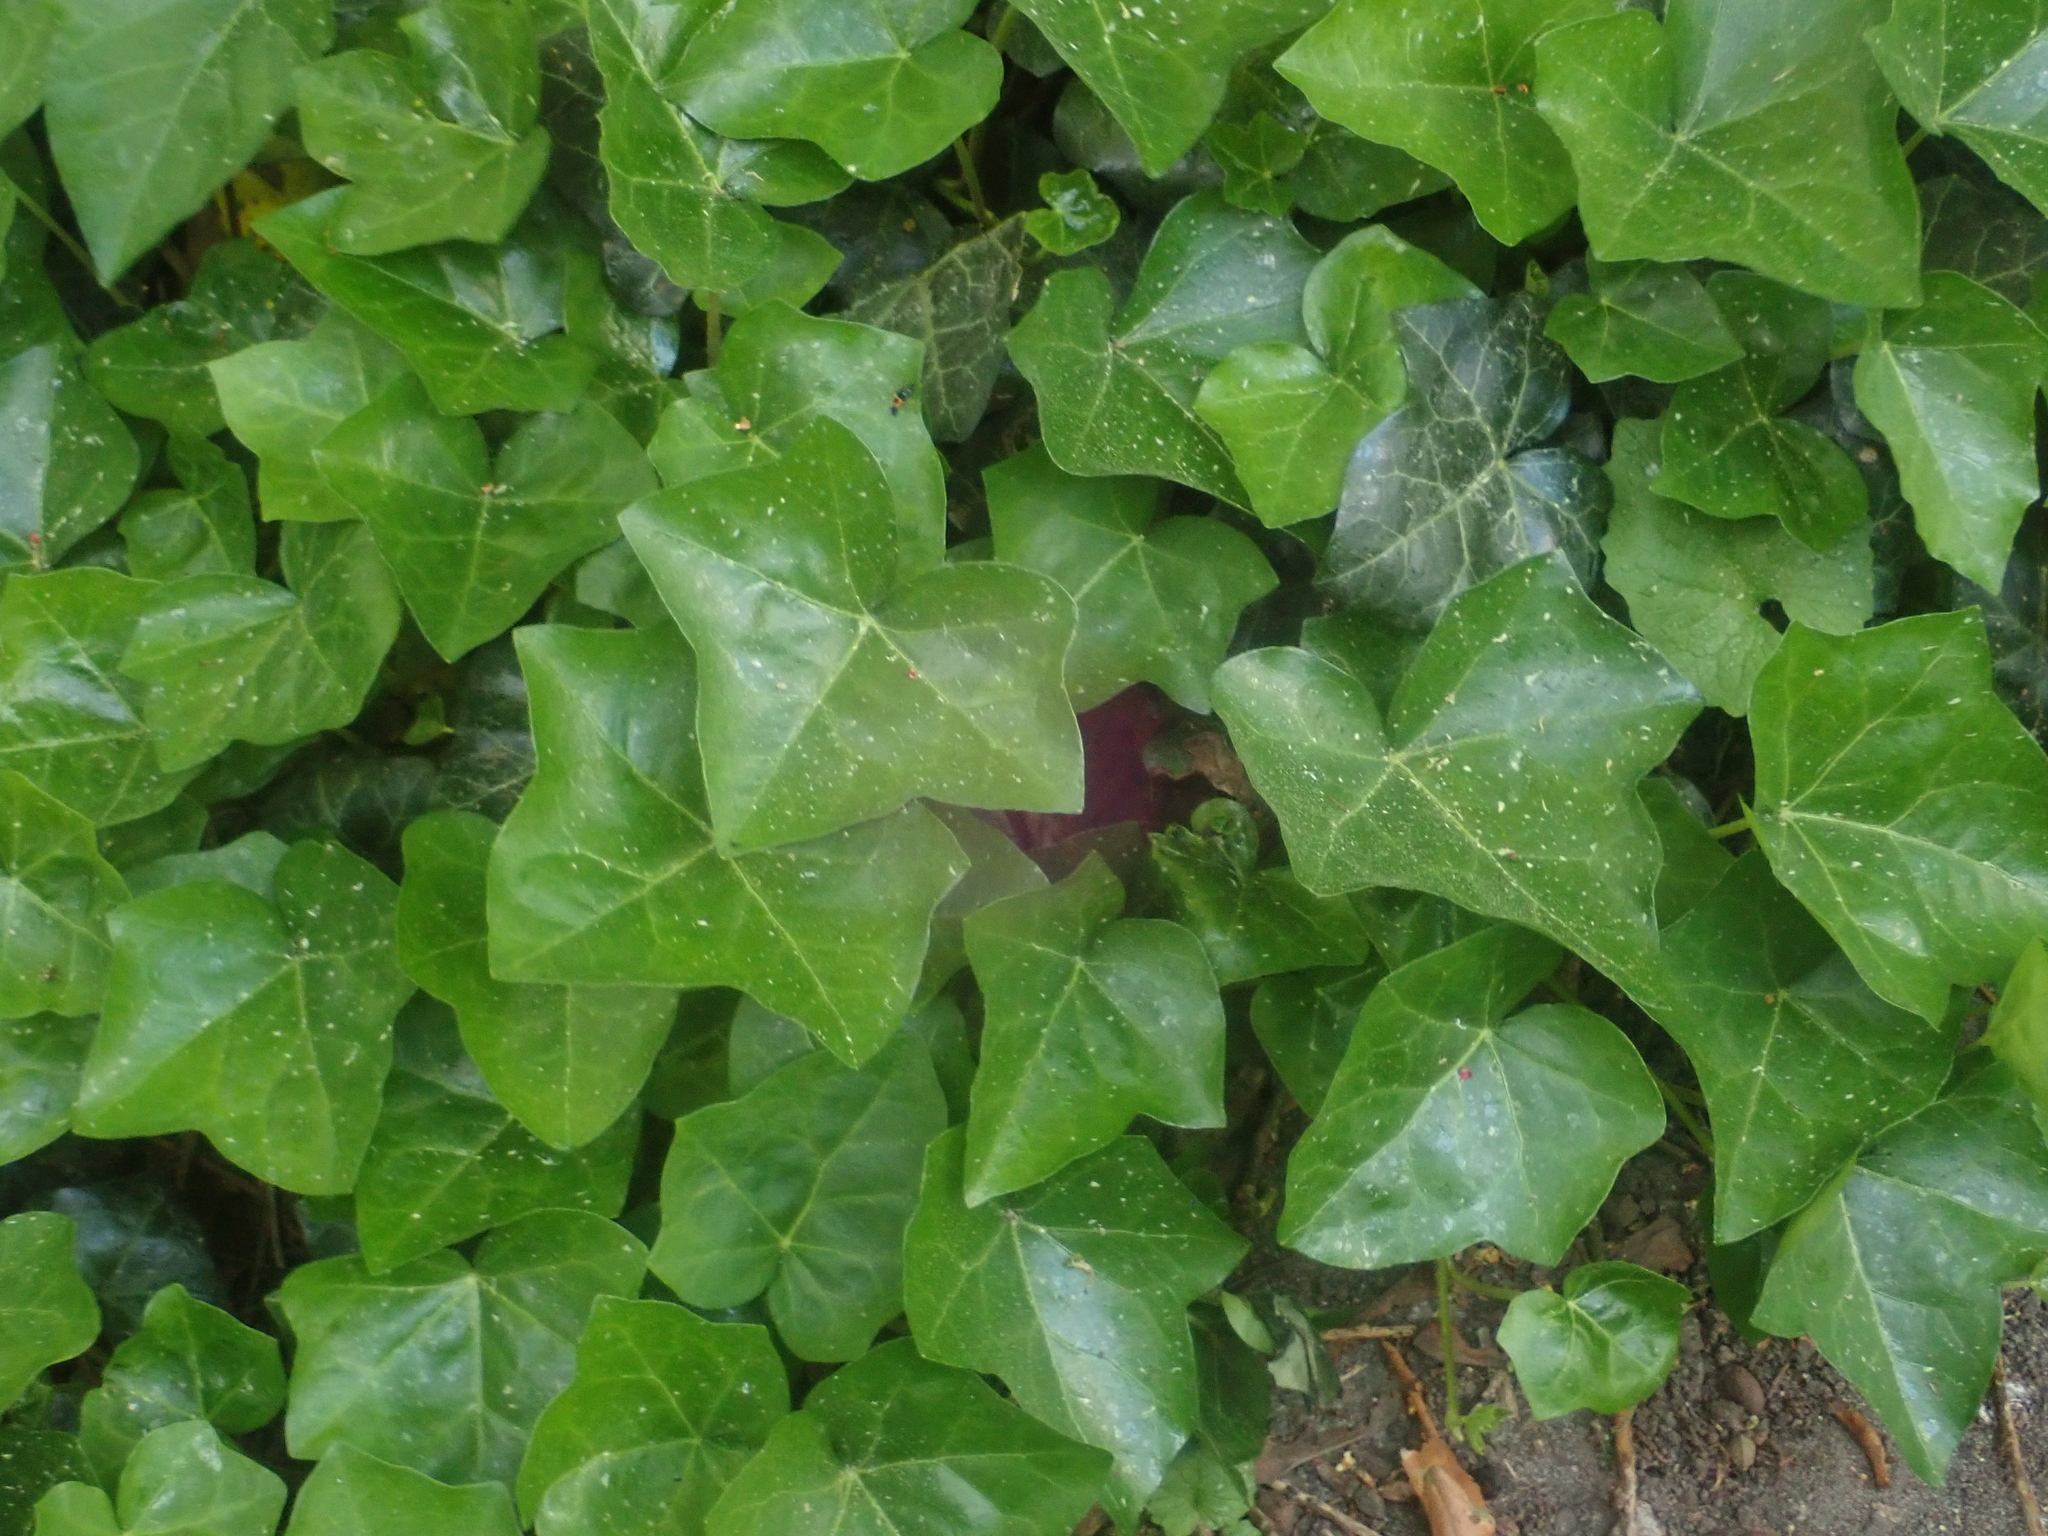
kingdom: Plantae
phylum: Tracheophyta
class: Magnoliopsida
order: Apiales
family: Araliaceae
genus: Hedera
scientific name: Hedera helix
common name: Ivy
